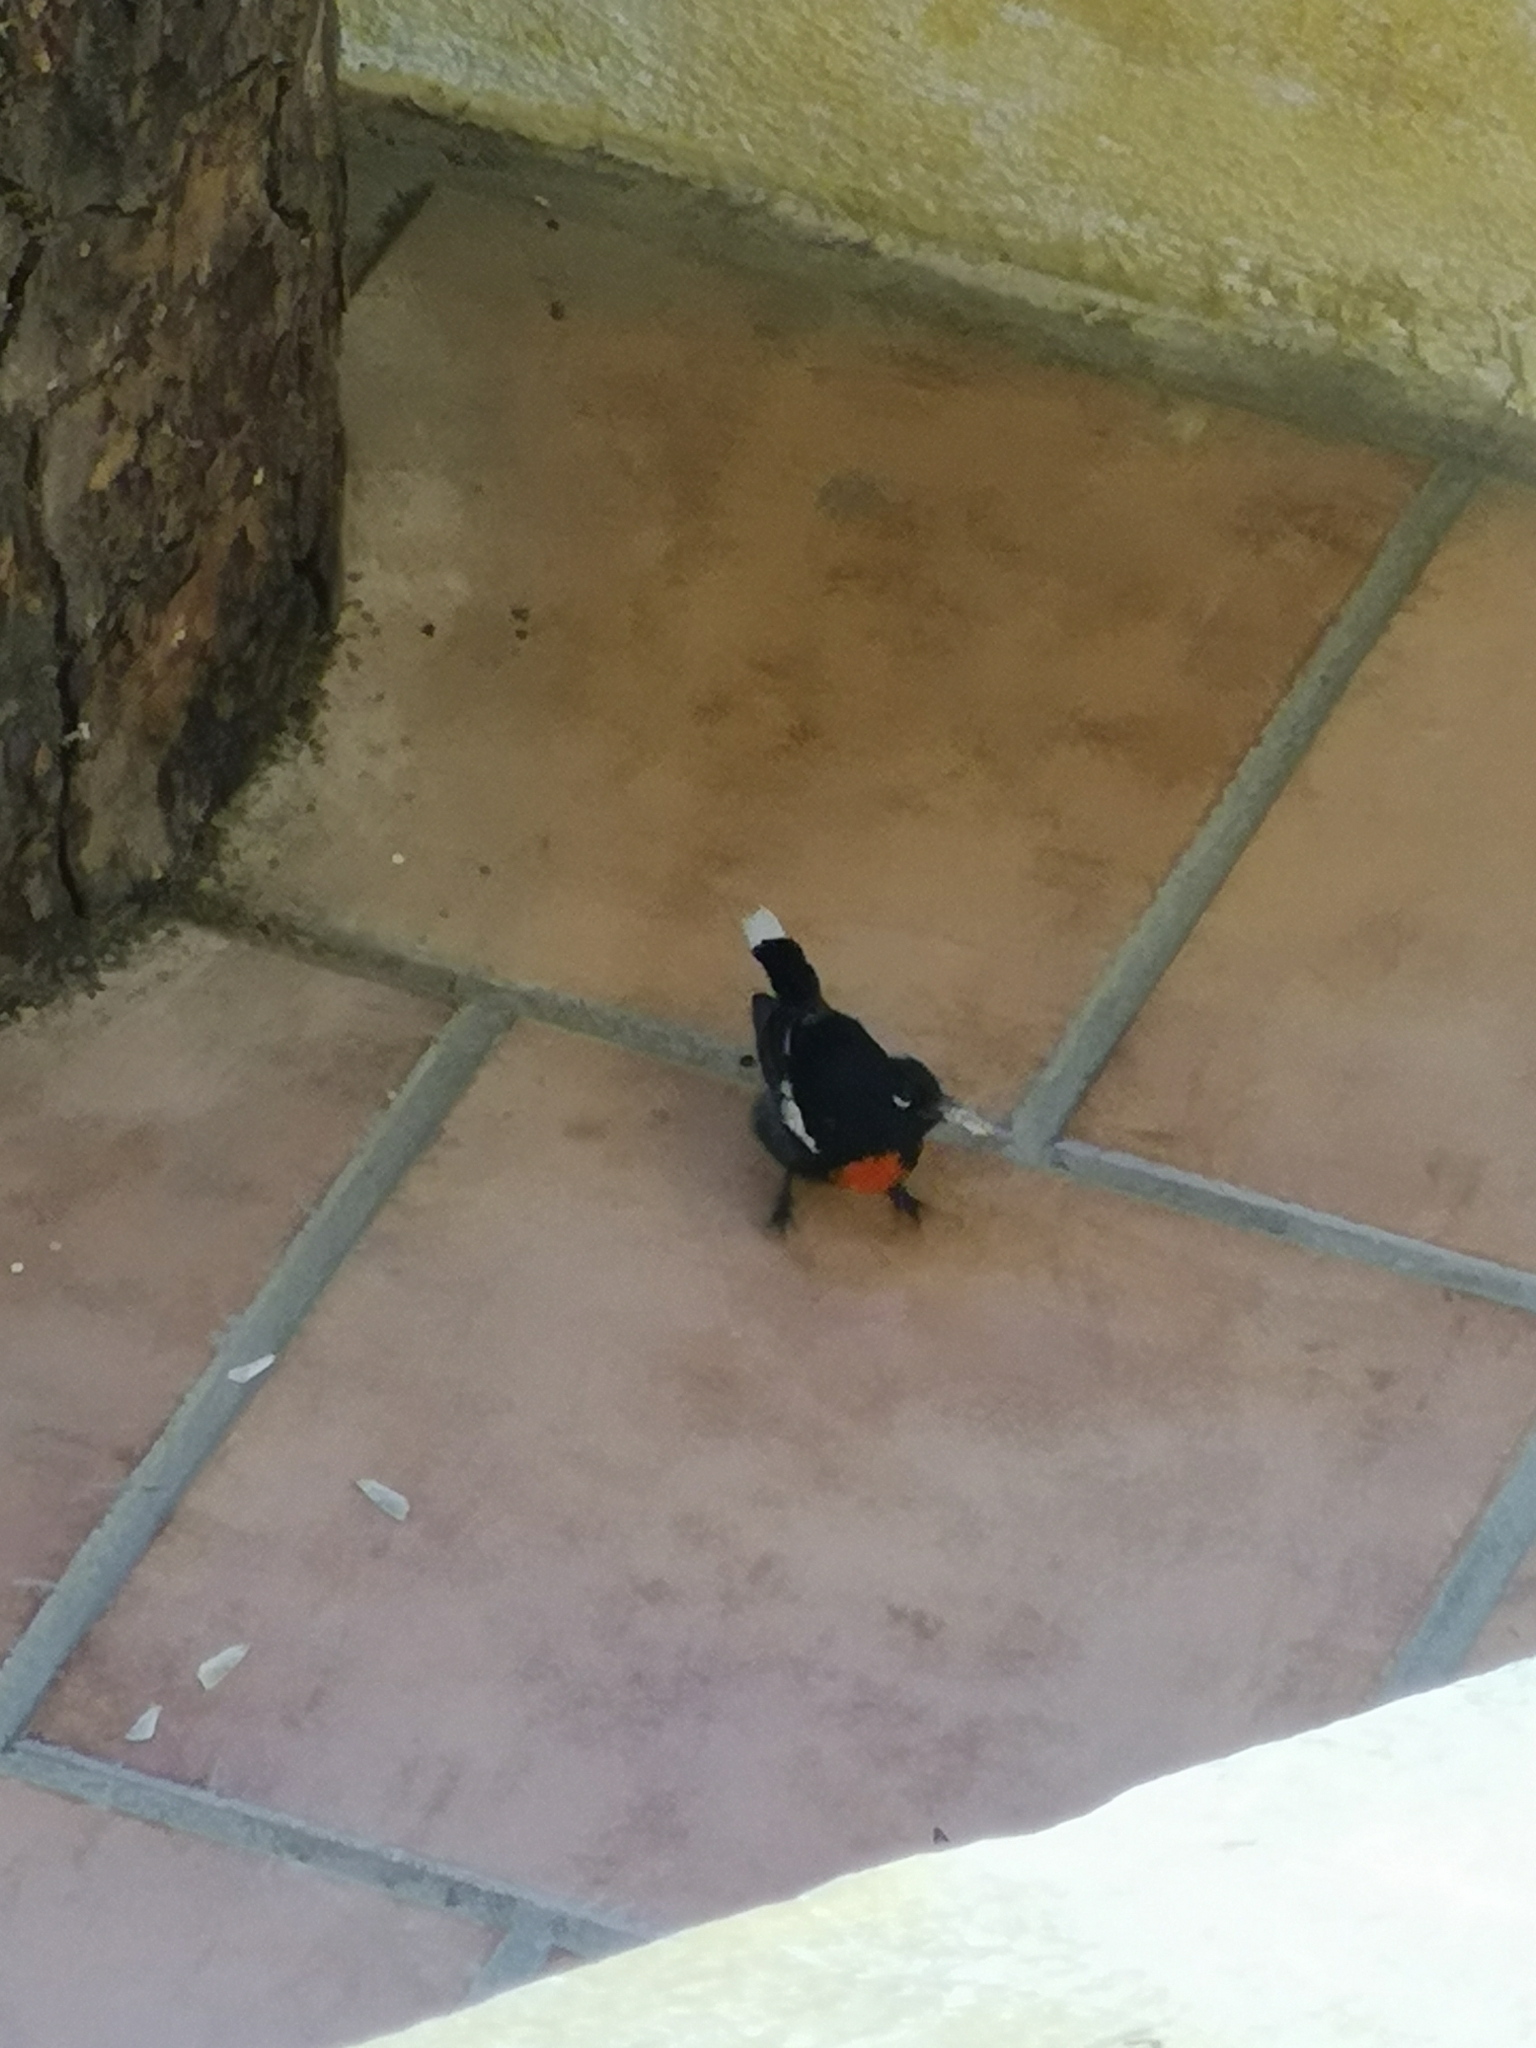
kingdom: Animalia
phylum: Chordata
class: Aves
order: Passeriformes
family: Parulidae
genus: Myioborus
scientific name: Myioborus pictus
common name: Painted whitestart
